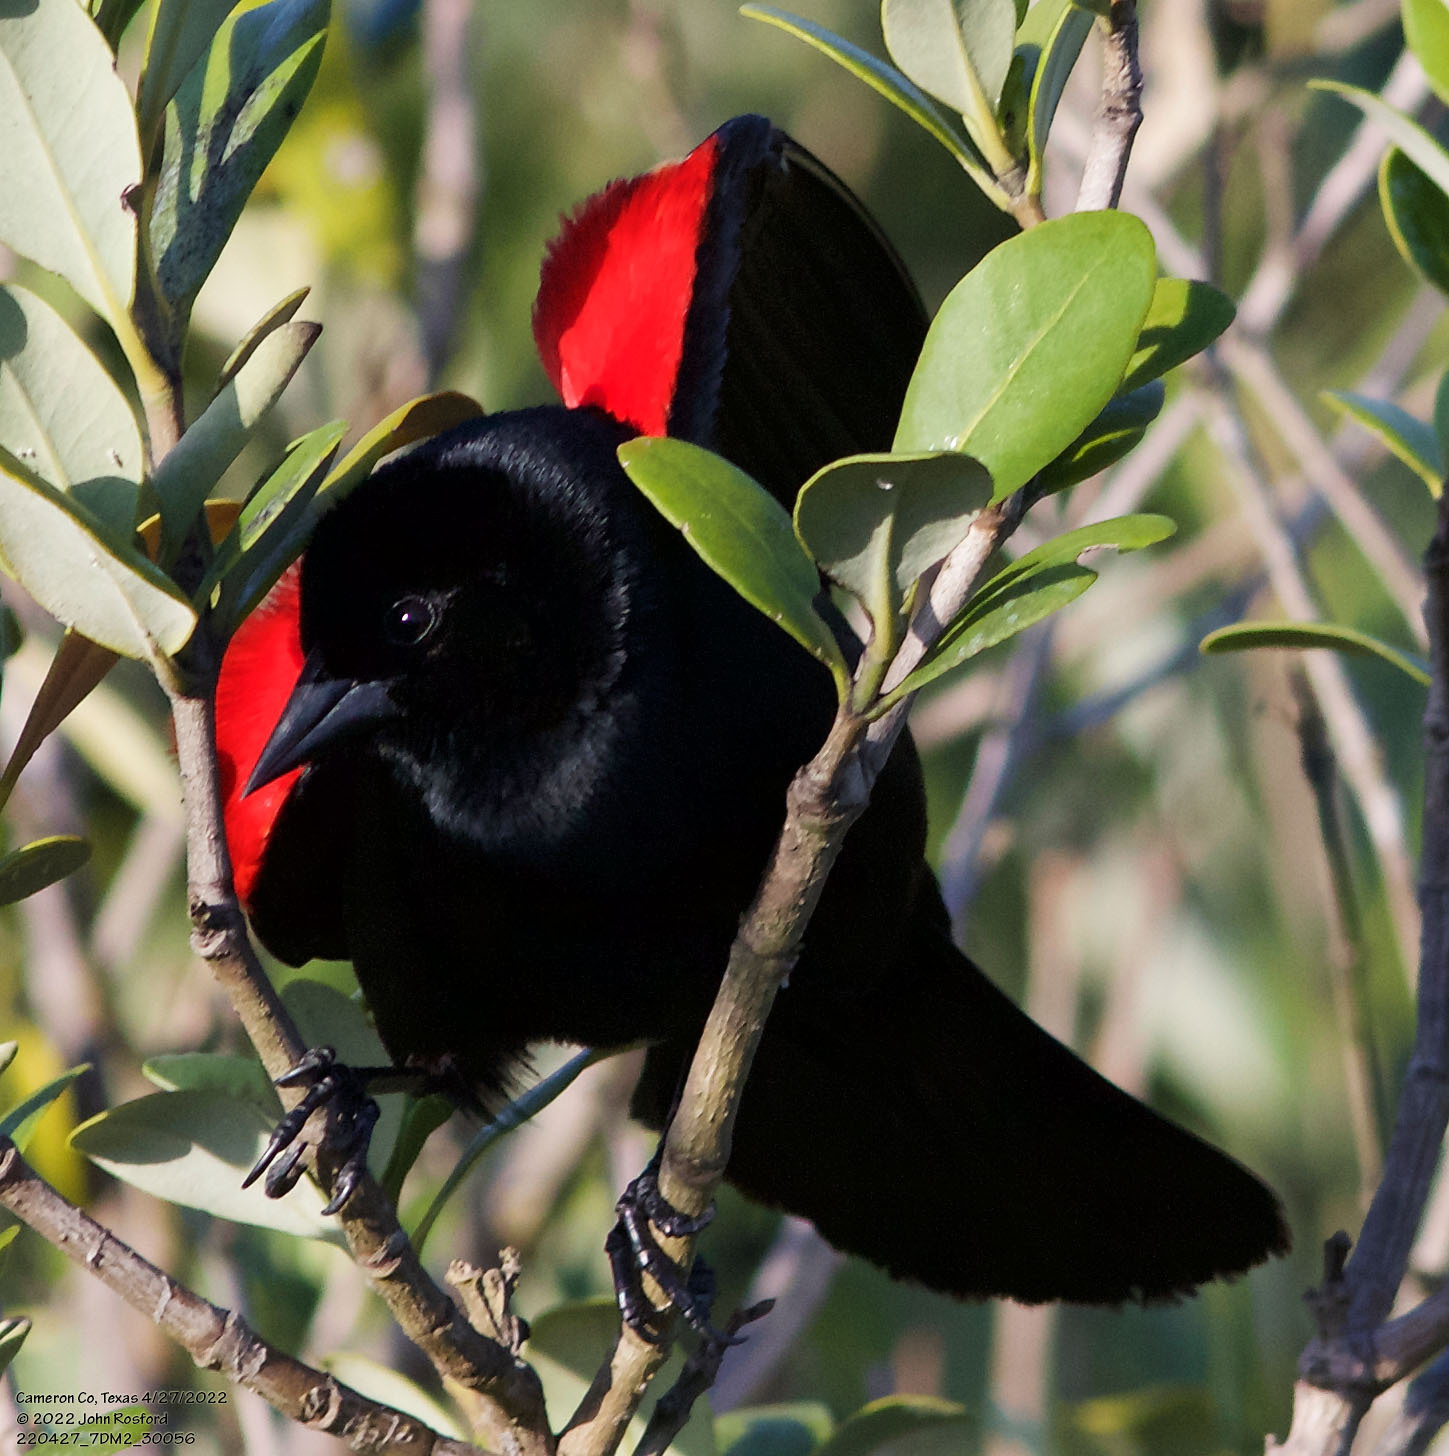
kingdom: Animalia
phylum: Chordata
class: Aves
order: Passeriformes
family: Icteridae
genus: Agelaius
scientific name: Agelaius phoeniceus
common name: Red-winged blackbird
